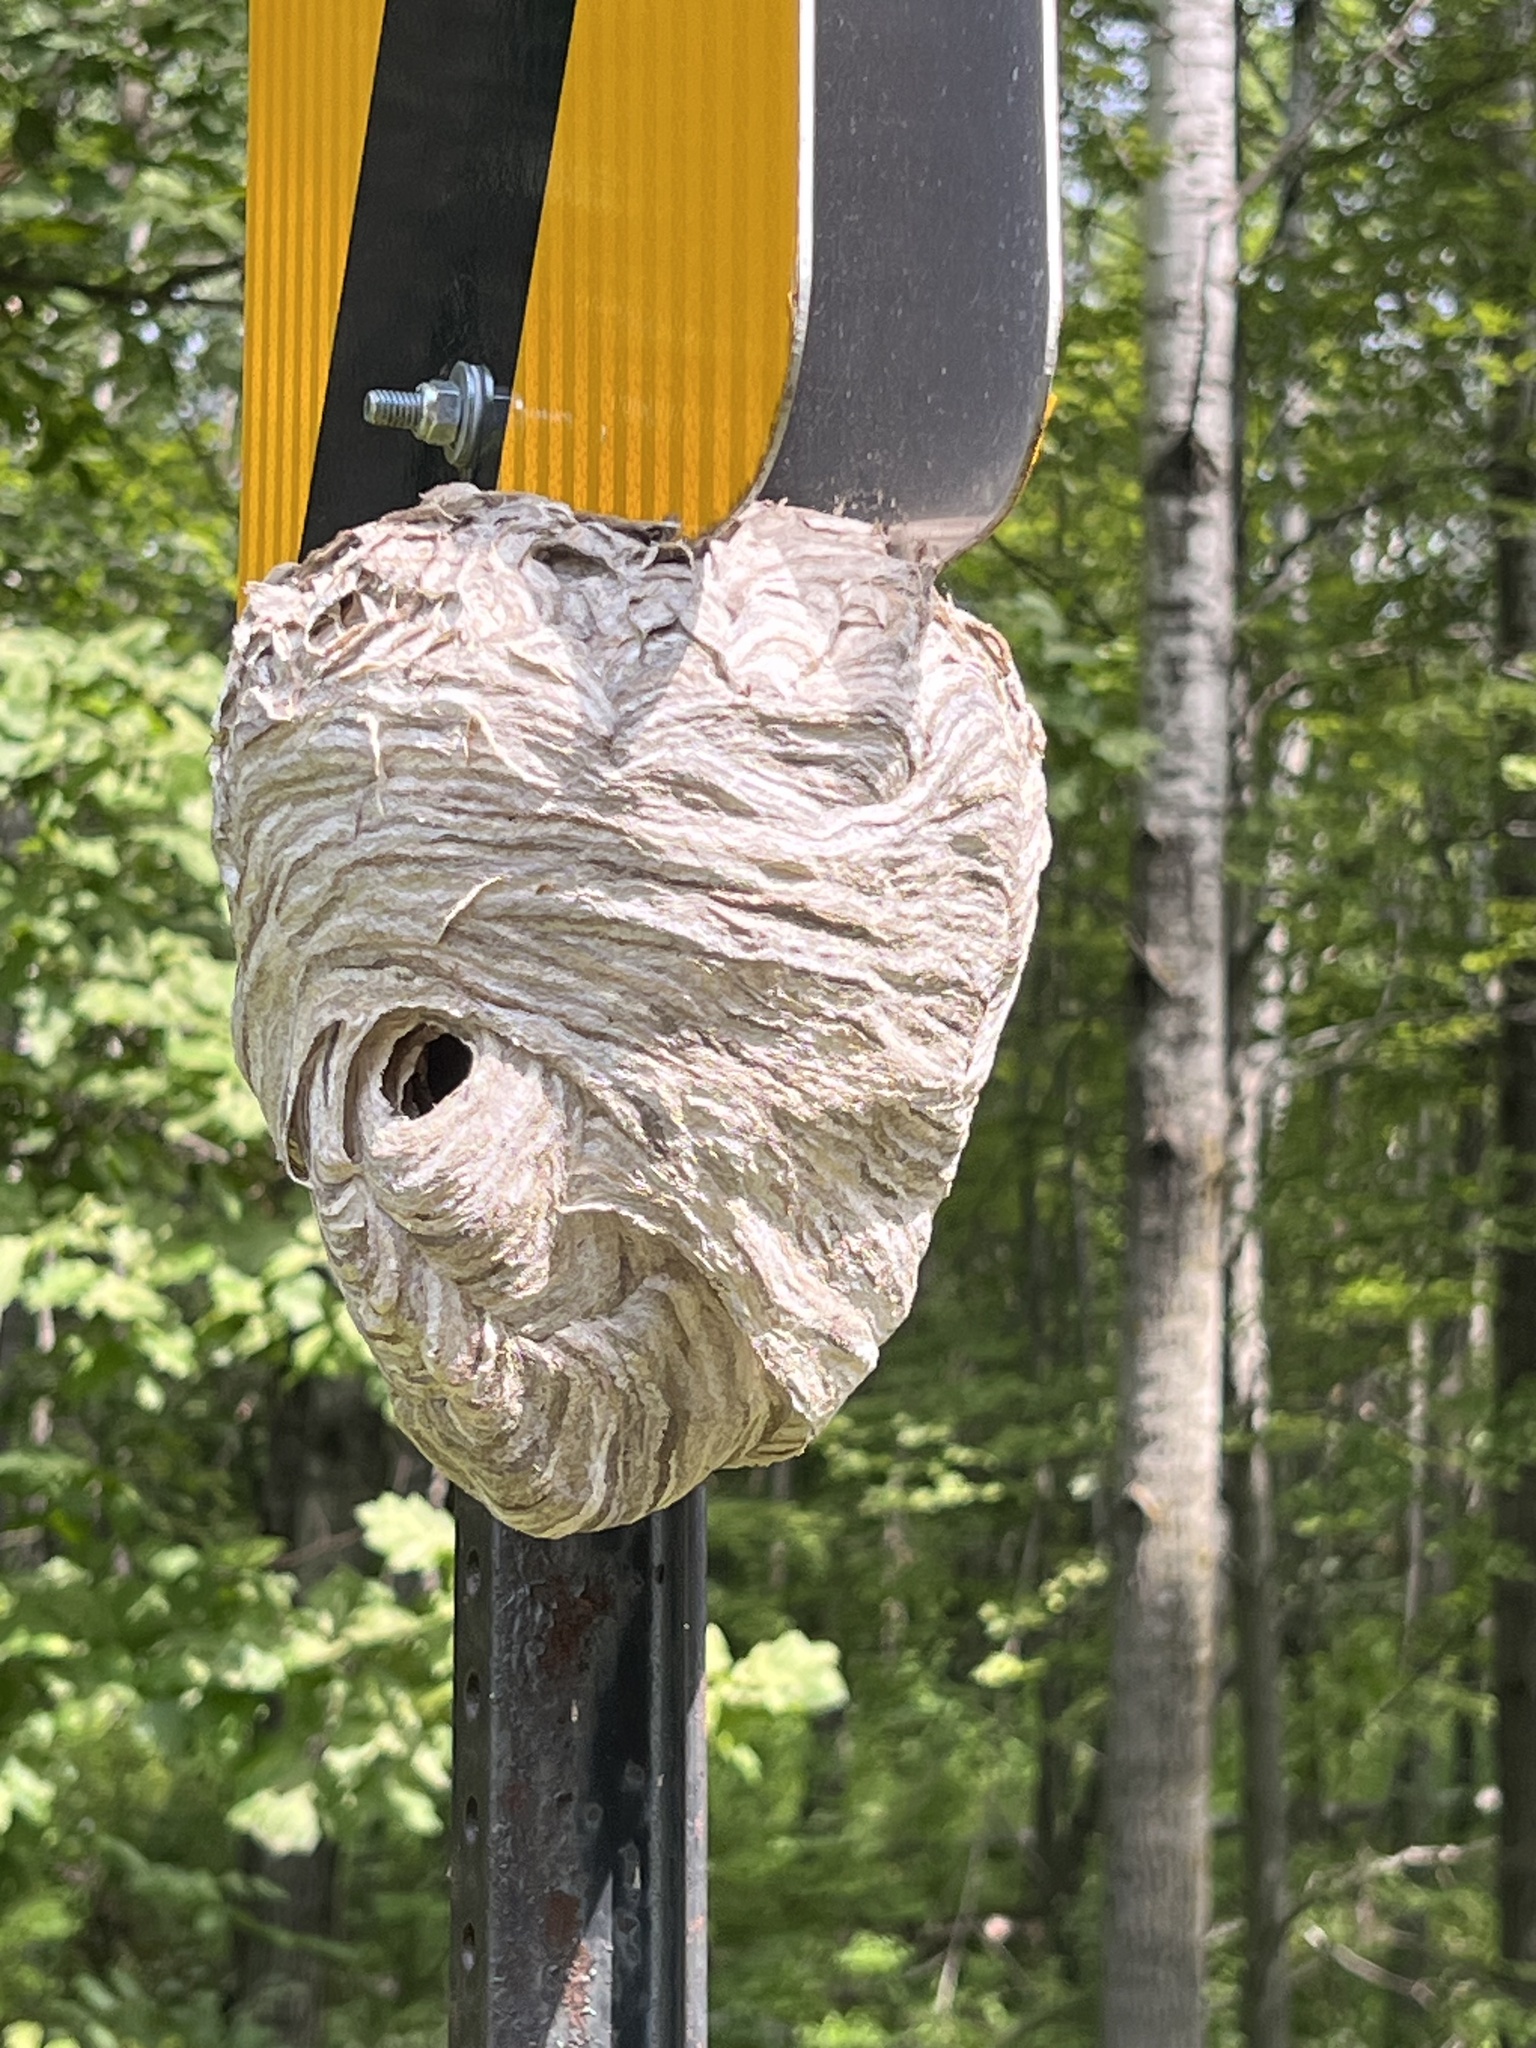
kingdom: Animalia
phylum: Arthropoda
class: Insecta
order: Hymenoptera
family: Vespidae
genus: Dolichovespula
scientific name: Dolichovespula maculata
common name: Bald-faced hornet
